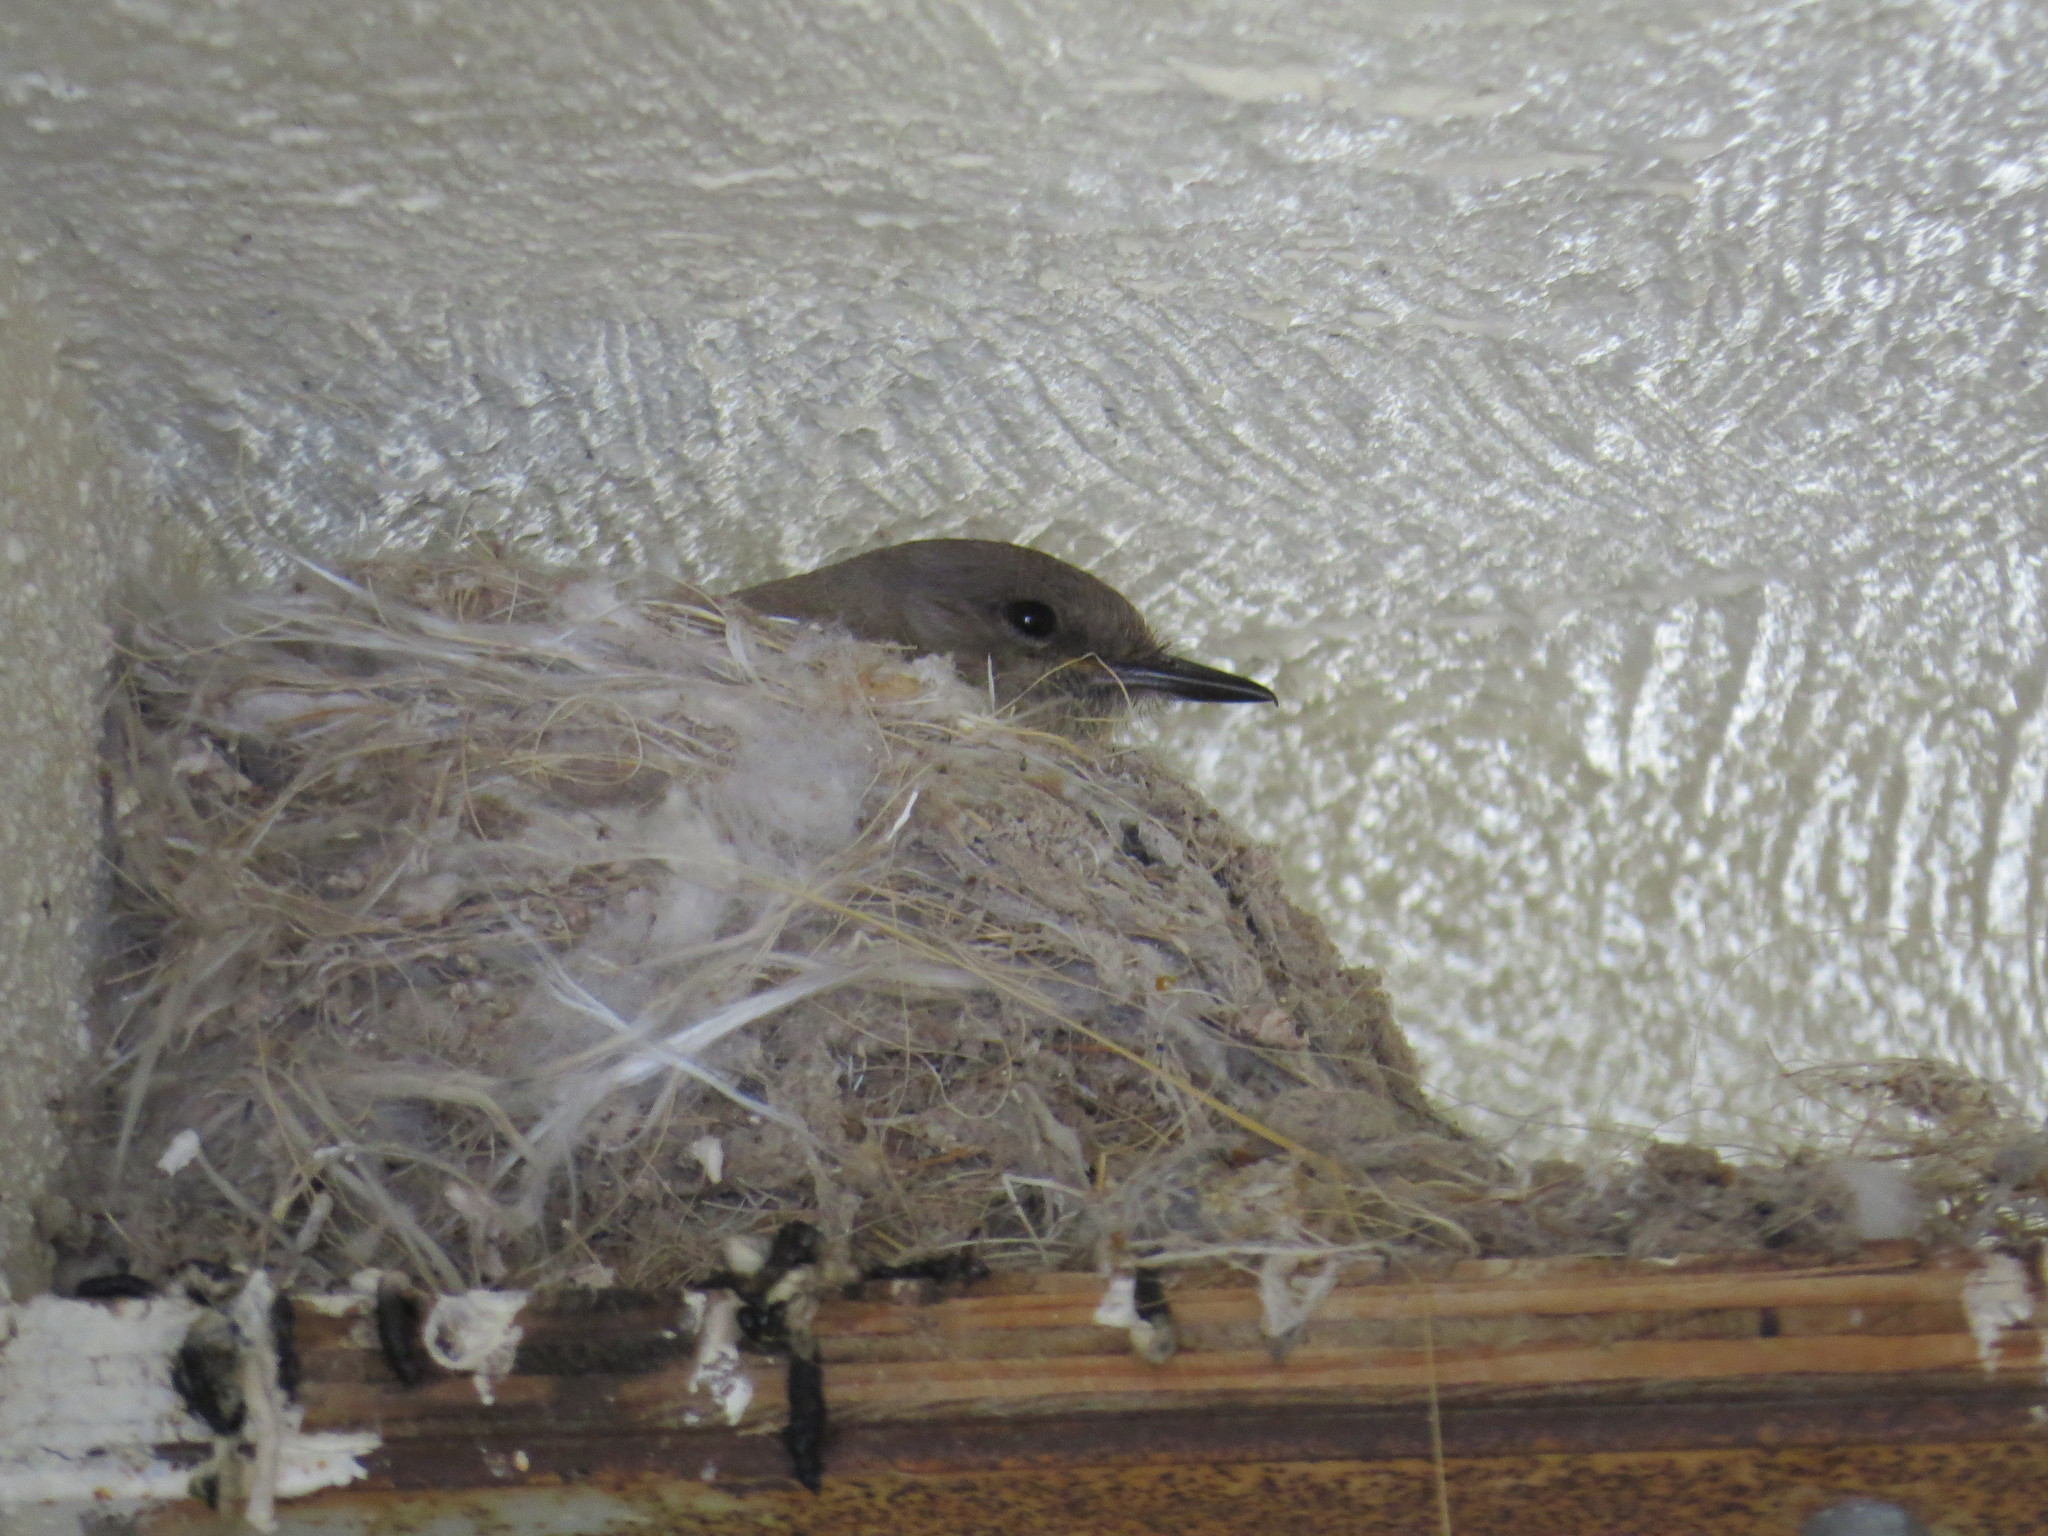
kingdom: Animalia
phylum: Chordata
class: Aves
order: Passeriformes
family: Tyrannidae
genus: Sayornis
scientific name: Sayornis saya
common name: Say's phoebe
